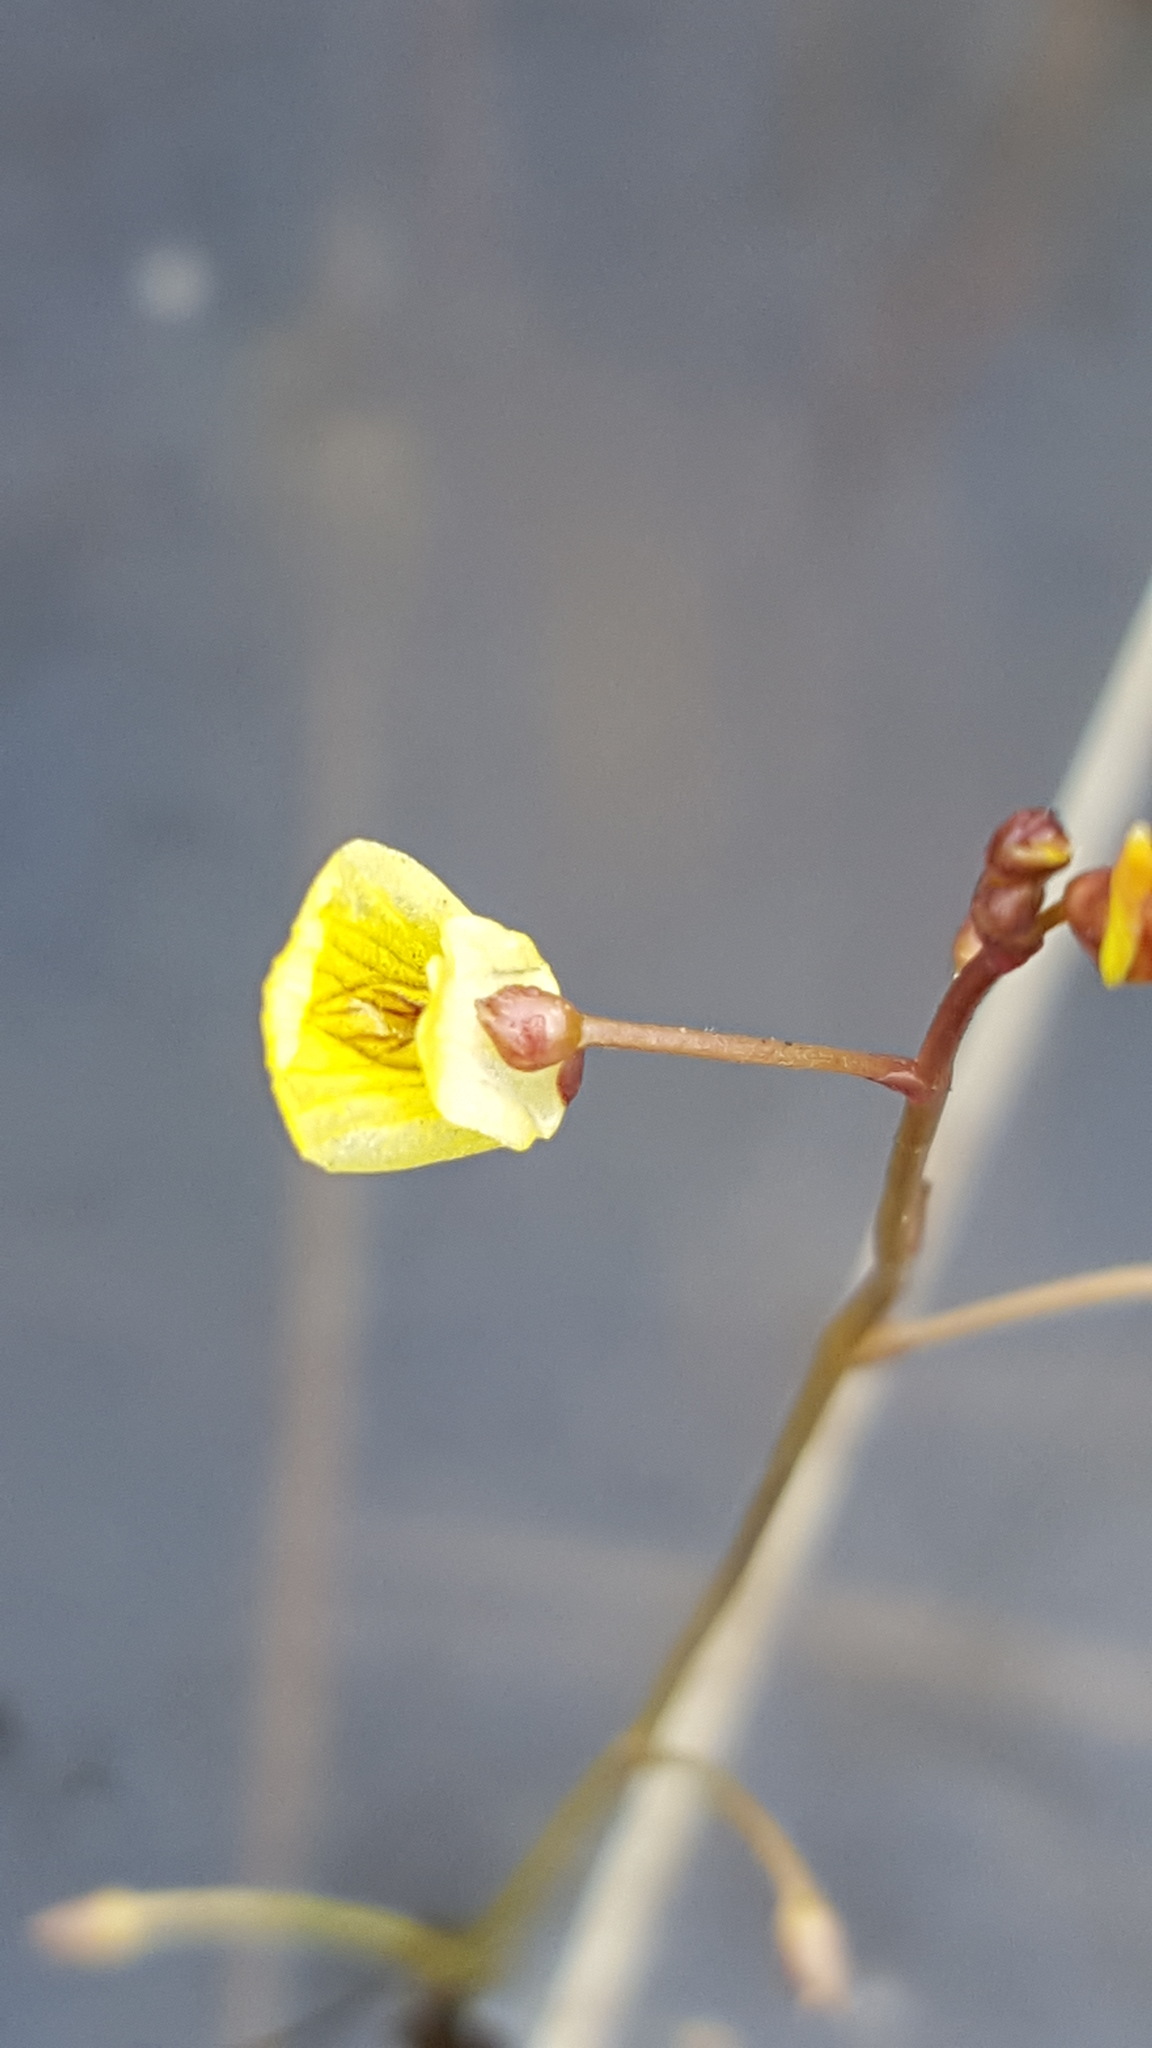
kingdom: Plantae
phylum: Tracheophyta
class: Magnoliopsida
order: Lamiales
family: Lentibulariaceae
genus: Utricularia
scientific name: Utricularia minor
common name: Lesser bladderwort
